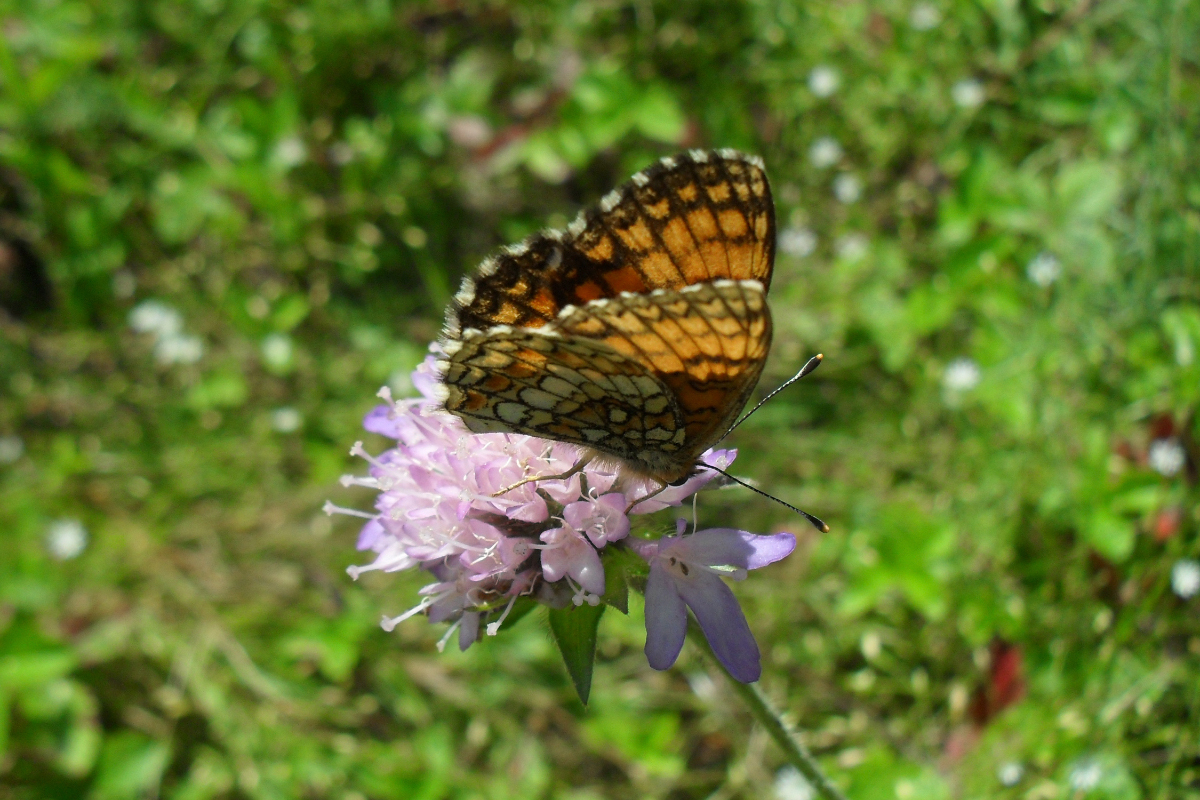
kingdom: Animalia
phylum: Arthropoda
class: Insecta
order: Lepidoptera
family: Nymphalidae
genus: Melitaea
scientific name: Melitaea athalia
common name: Heath fritillary
